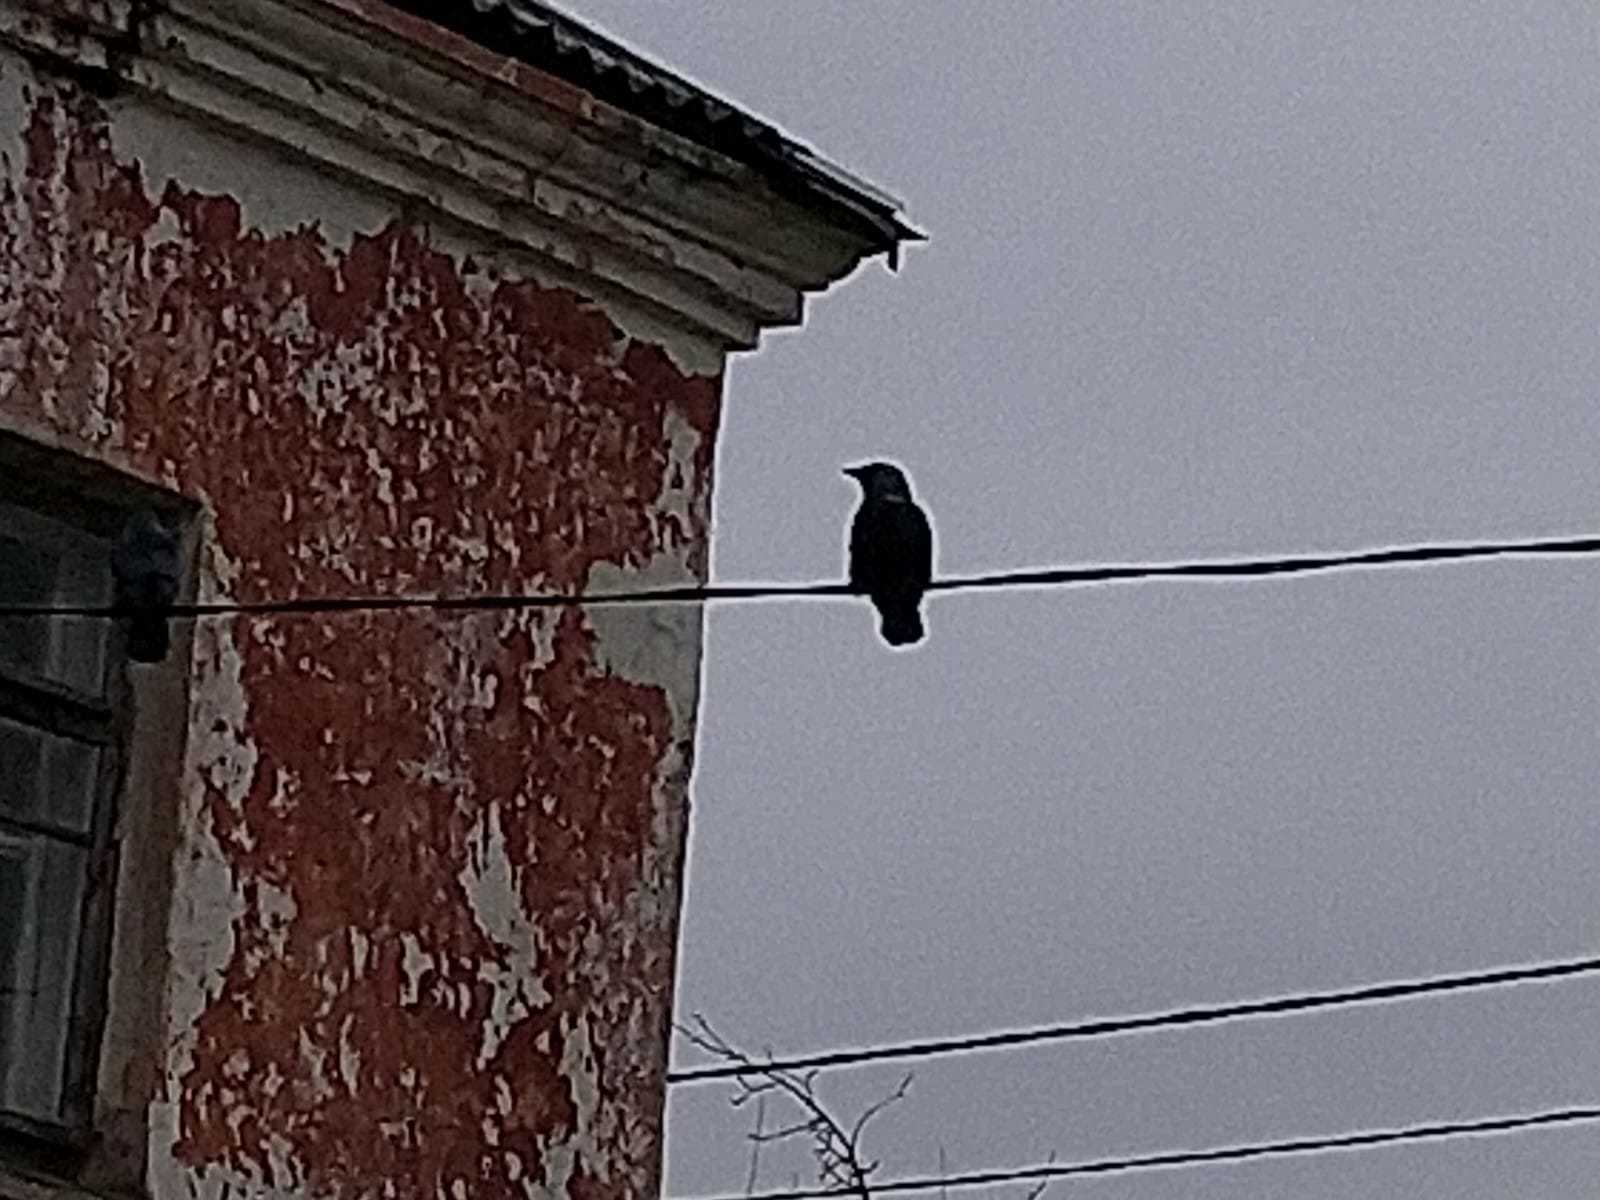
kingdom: Animalia
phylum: Chordata
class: Aves
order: Passeriformes
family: Corvidae
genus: Coloeus
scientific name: Coloeus monedula
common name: Western jackdaw
